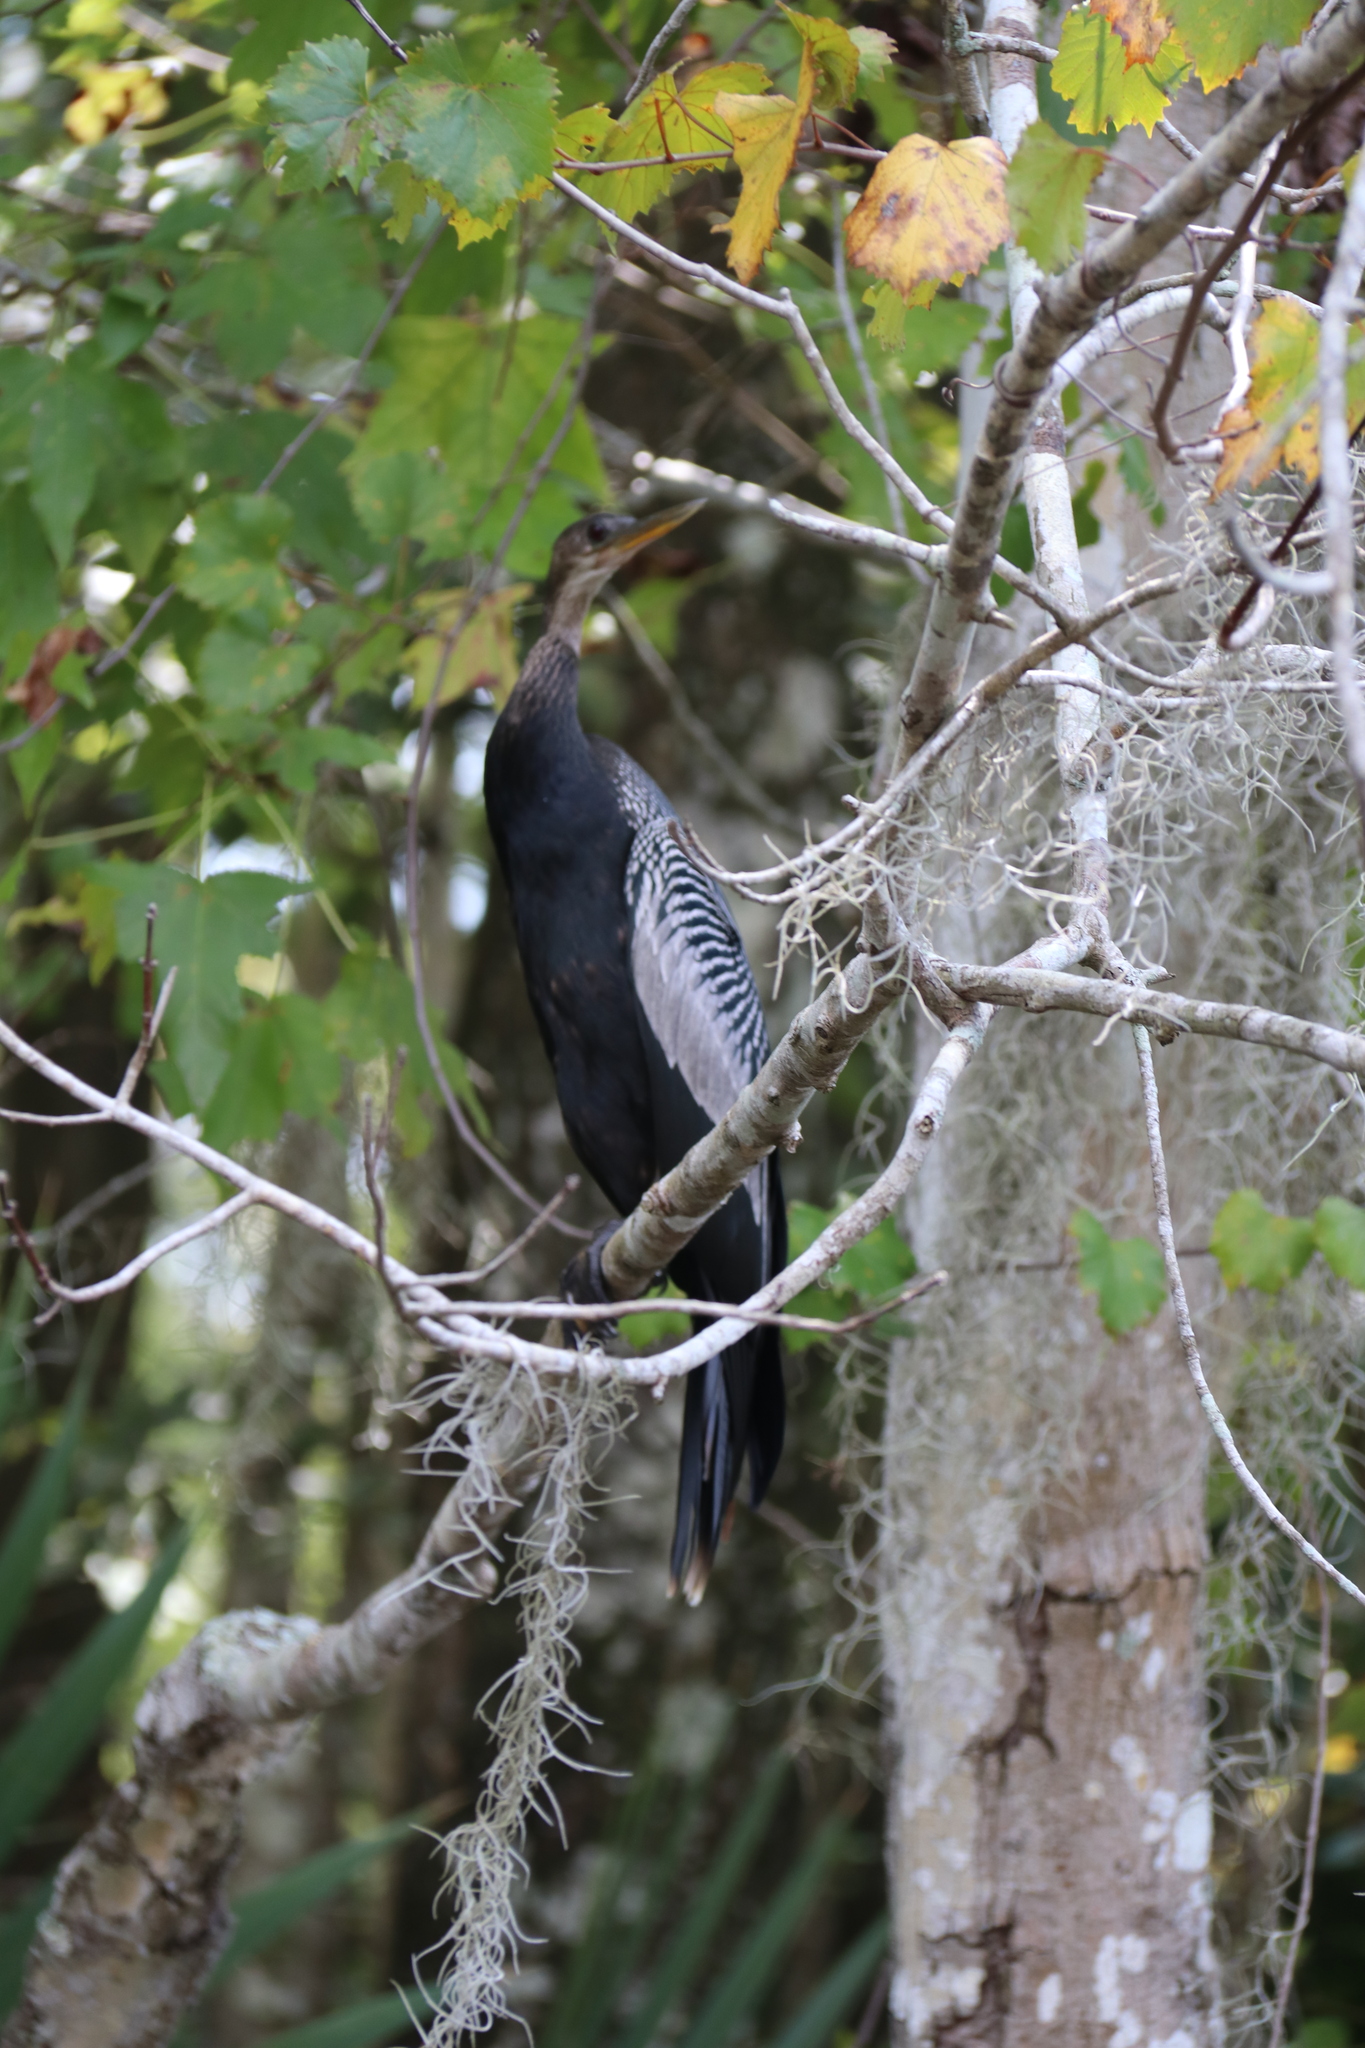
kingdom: Animalia
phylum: Chordata
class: Aves
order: Suliformes
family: Anhingidae
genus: Anhinga
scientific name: Anhinga anhinga
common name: Anhinga
